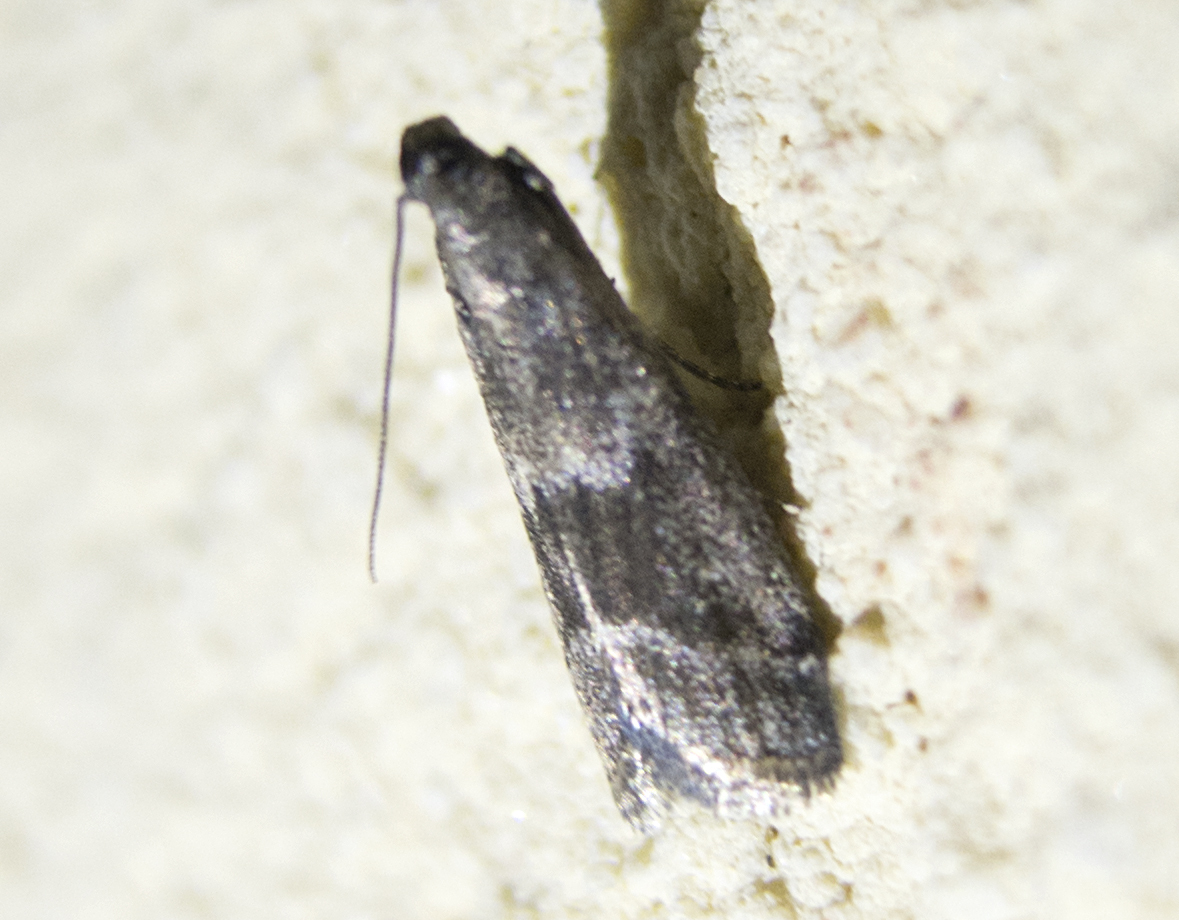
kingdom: Animalia
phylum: Arthropoda
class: Insecta
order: Lepidoptera
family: Pyralidae
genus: Glyptoteles
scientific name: Glyptoteles leucacrinella
